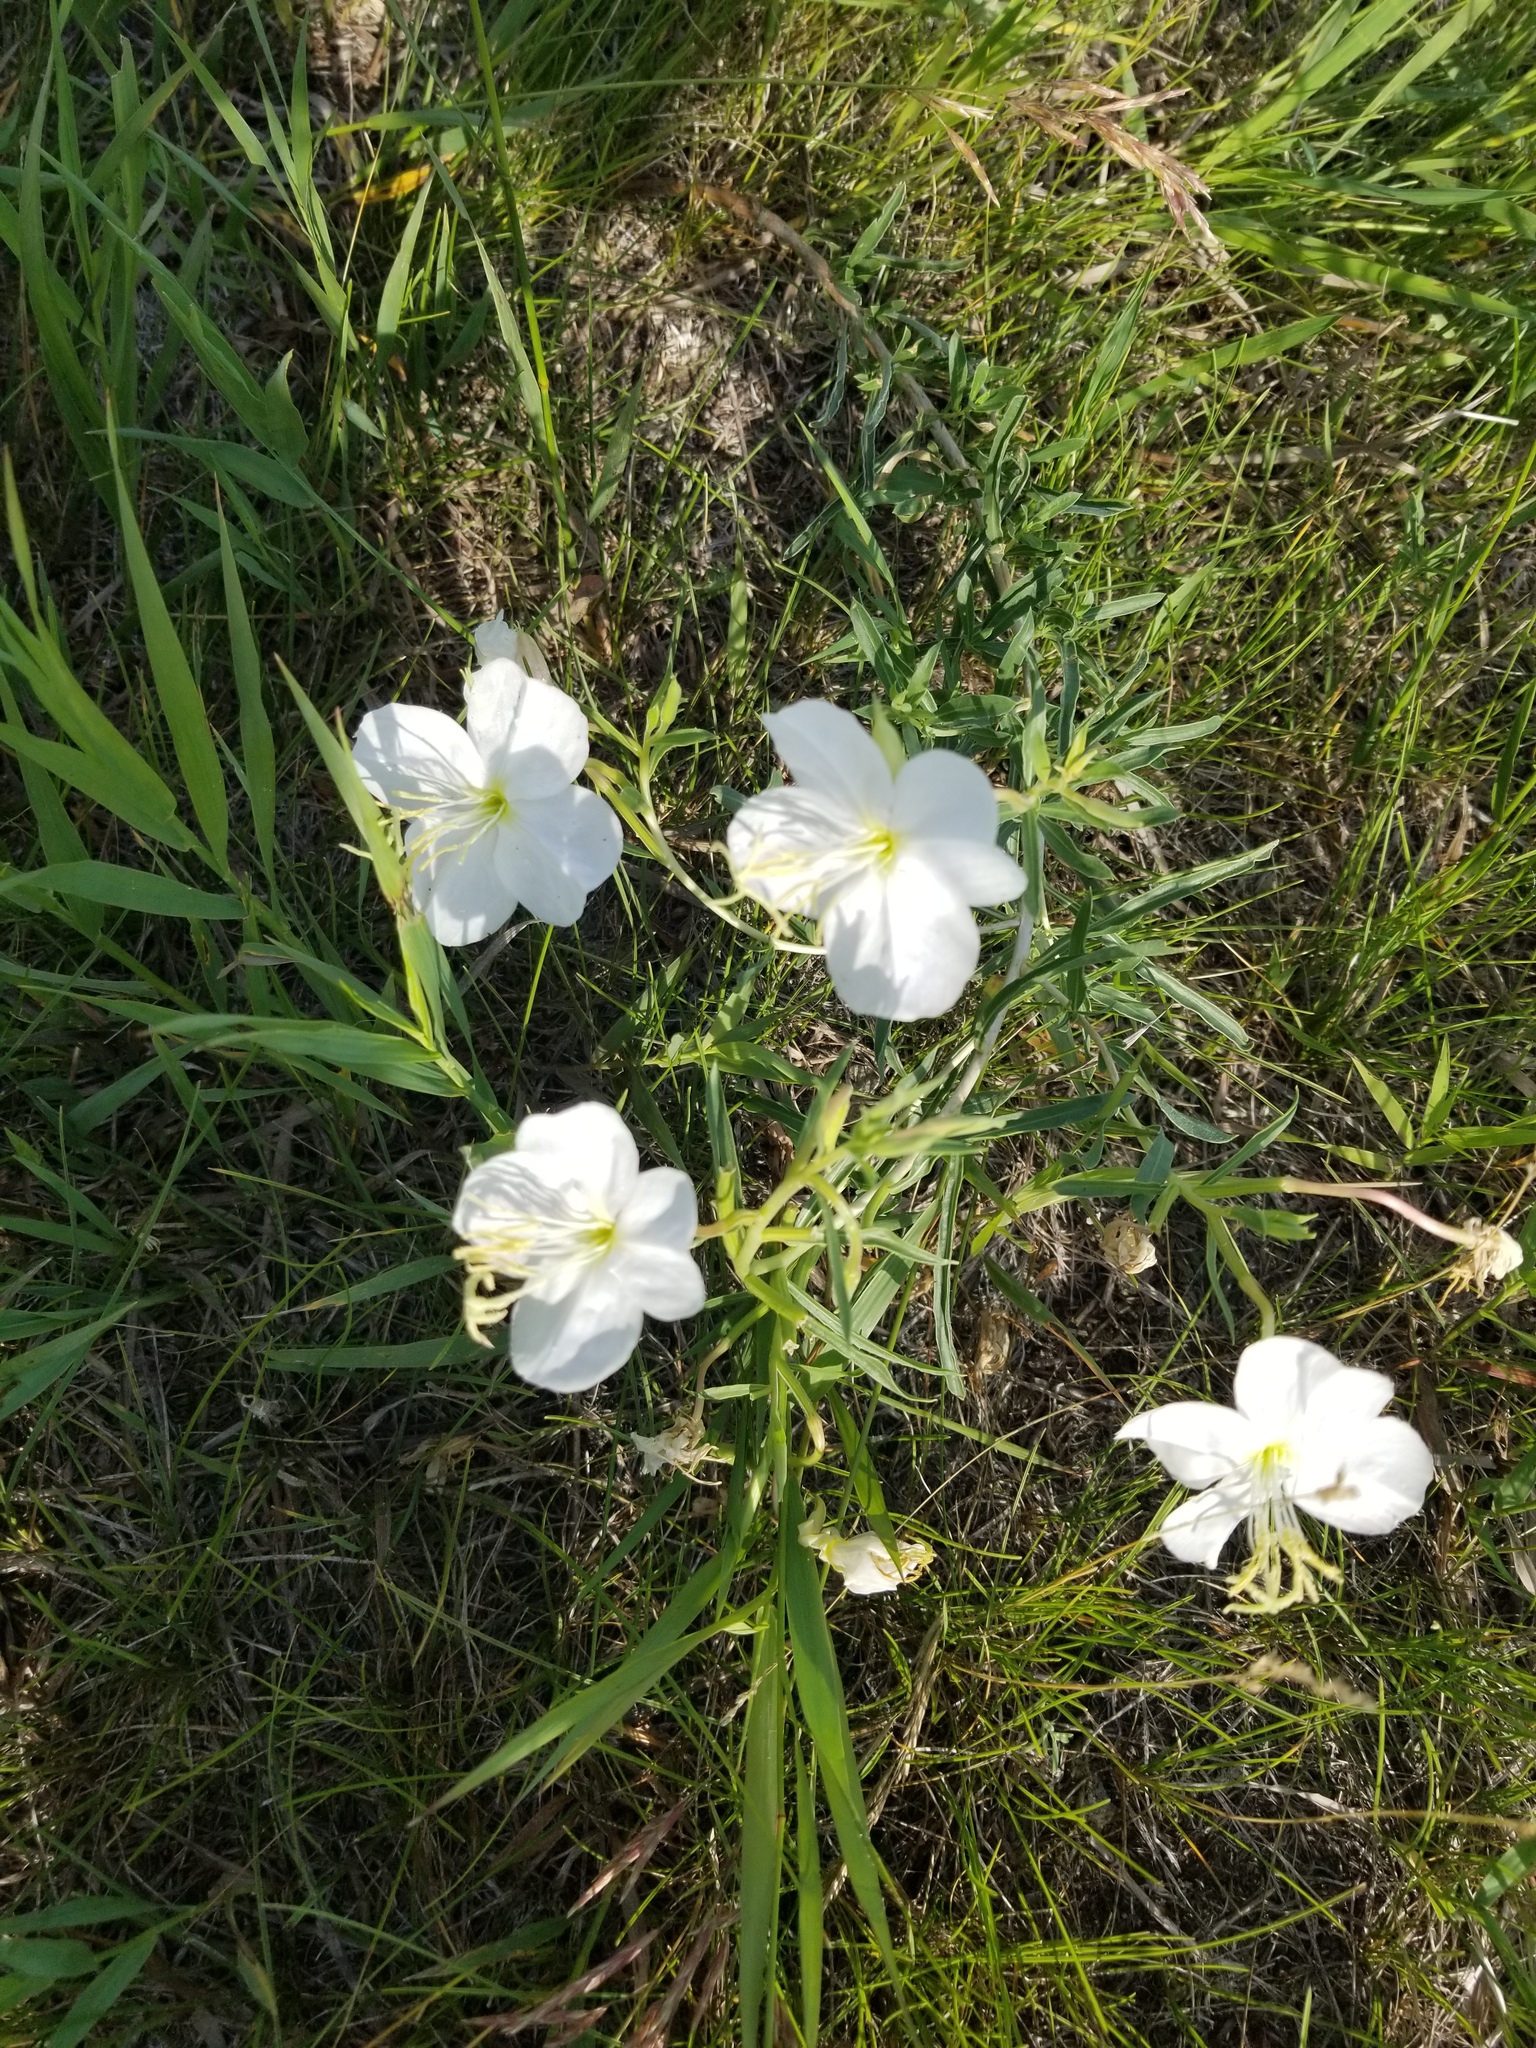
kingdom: Plantae
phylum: Tracheophyta
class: Magnoliopsida
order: Myrtales
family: Onagraceae
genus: Oenothera
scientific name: Oenothera nuttallii
